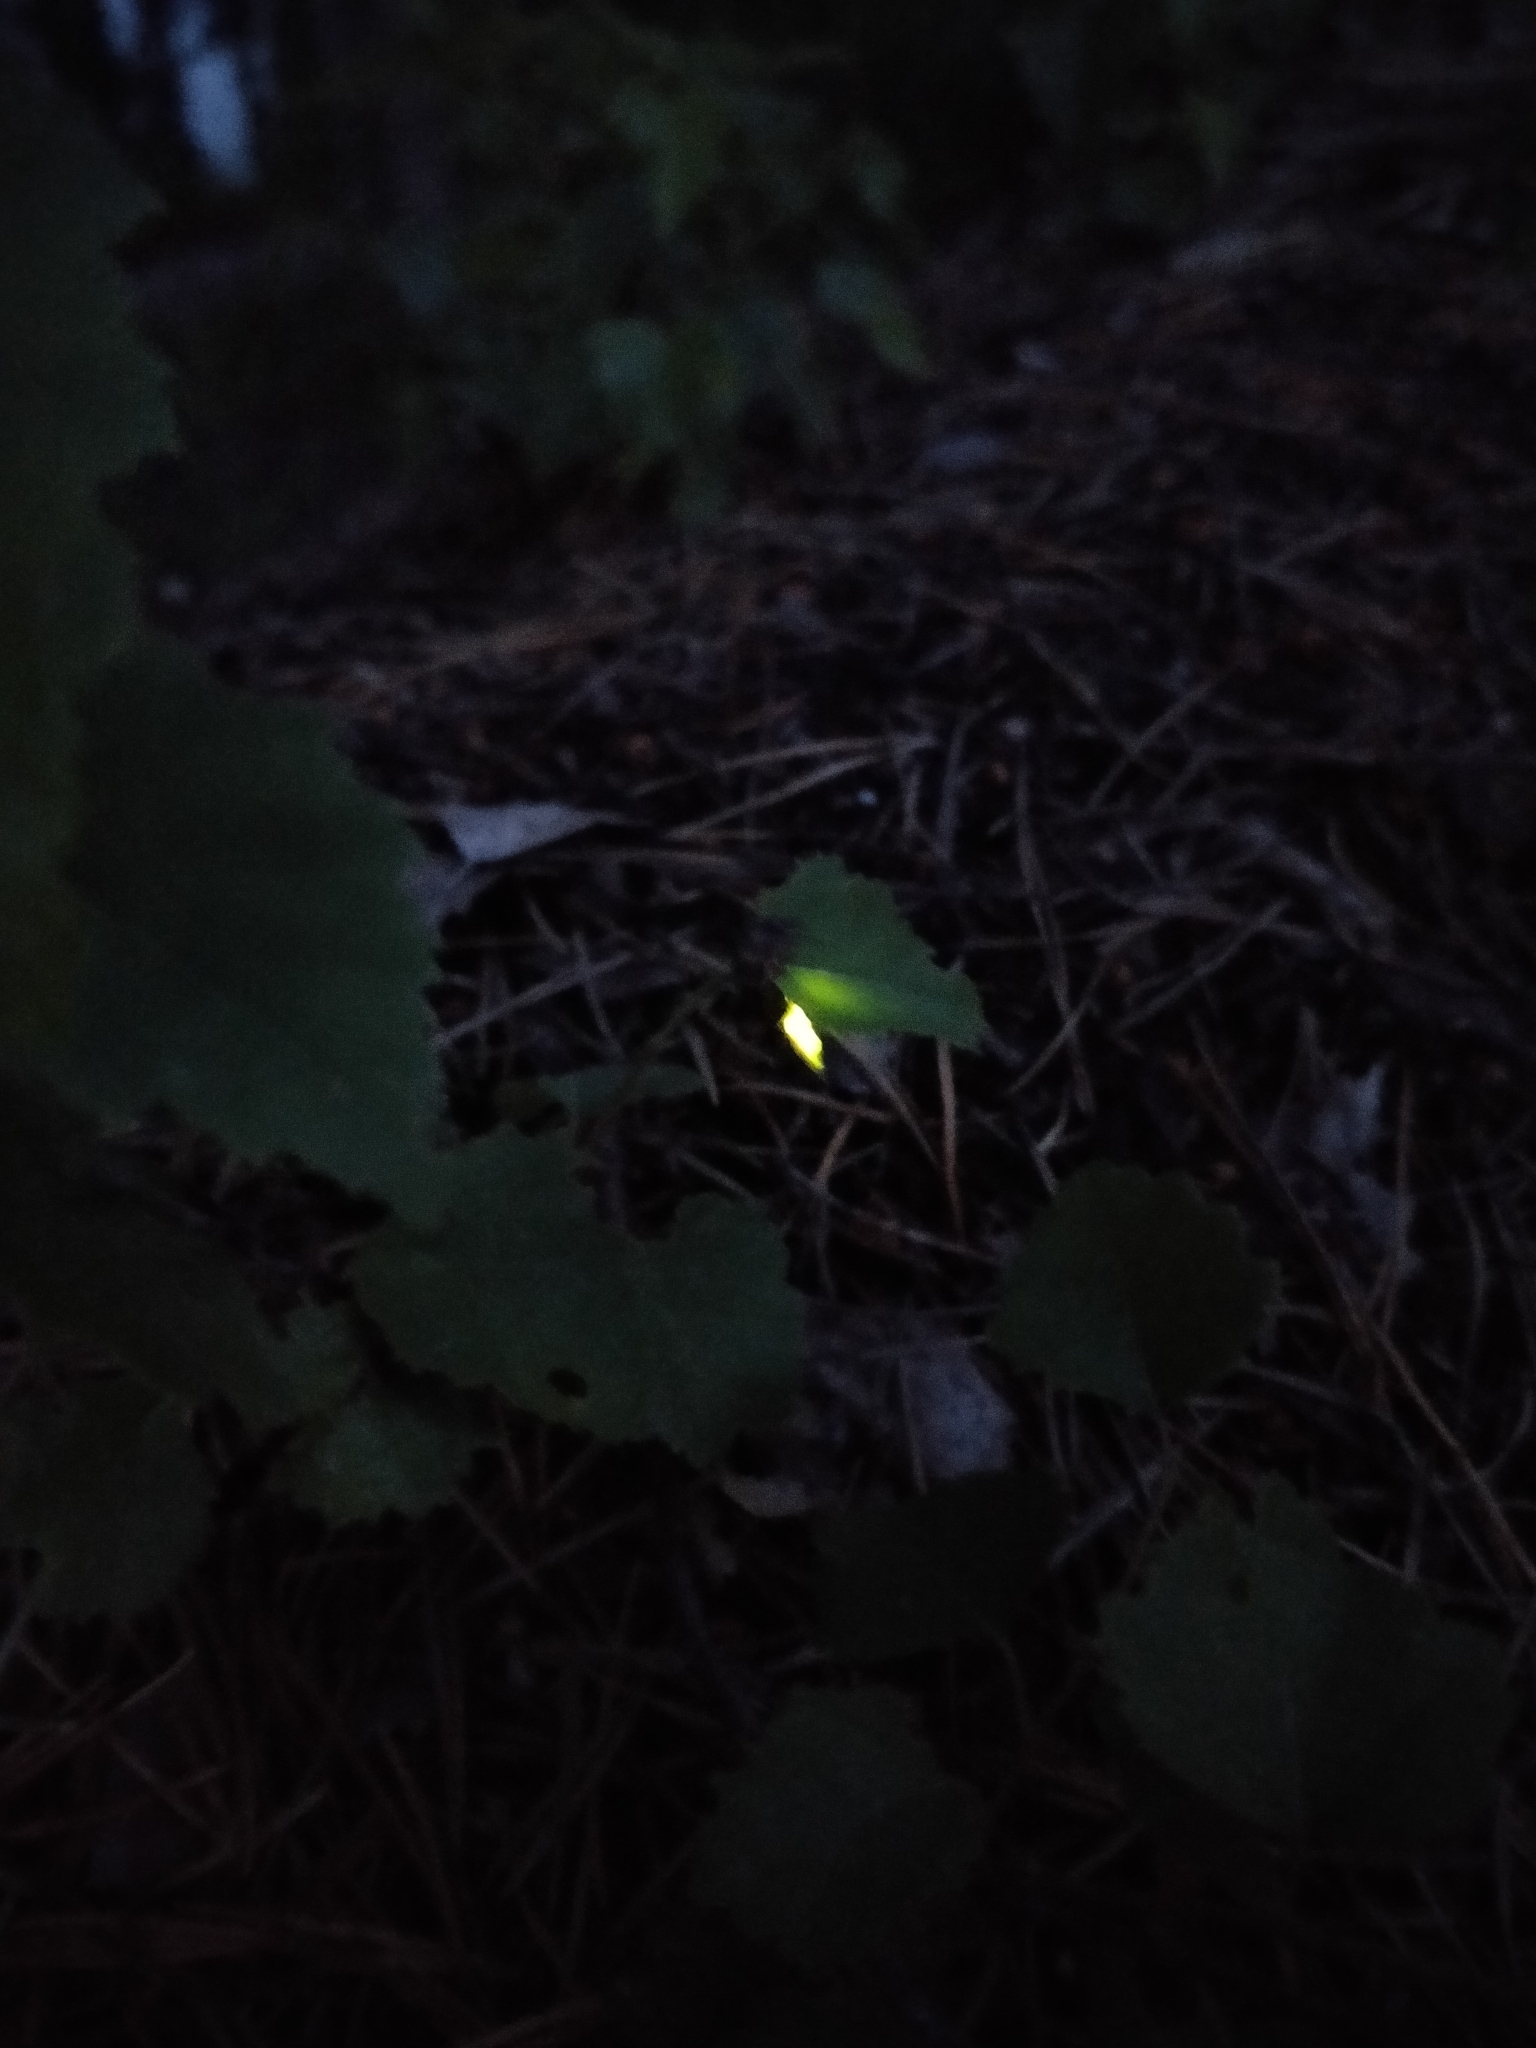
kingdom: Animalia
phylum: Arthropoda
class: Insecta
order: Coleoptera
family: Lampyridae
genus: Lampyris
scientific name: Lampyris noctiluca
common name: Glow-worm
